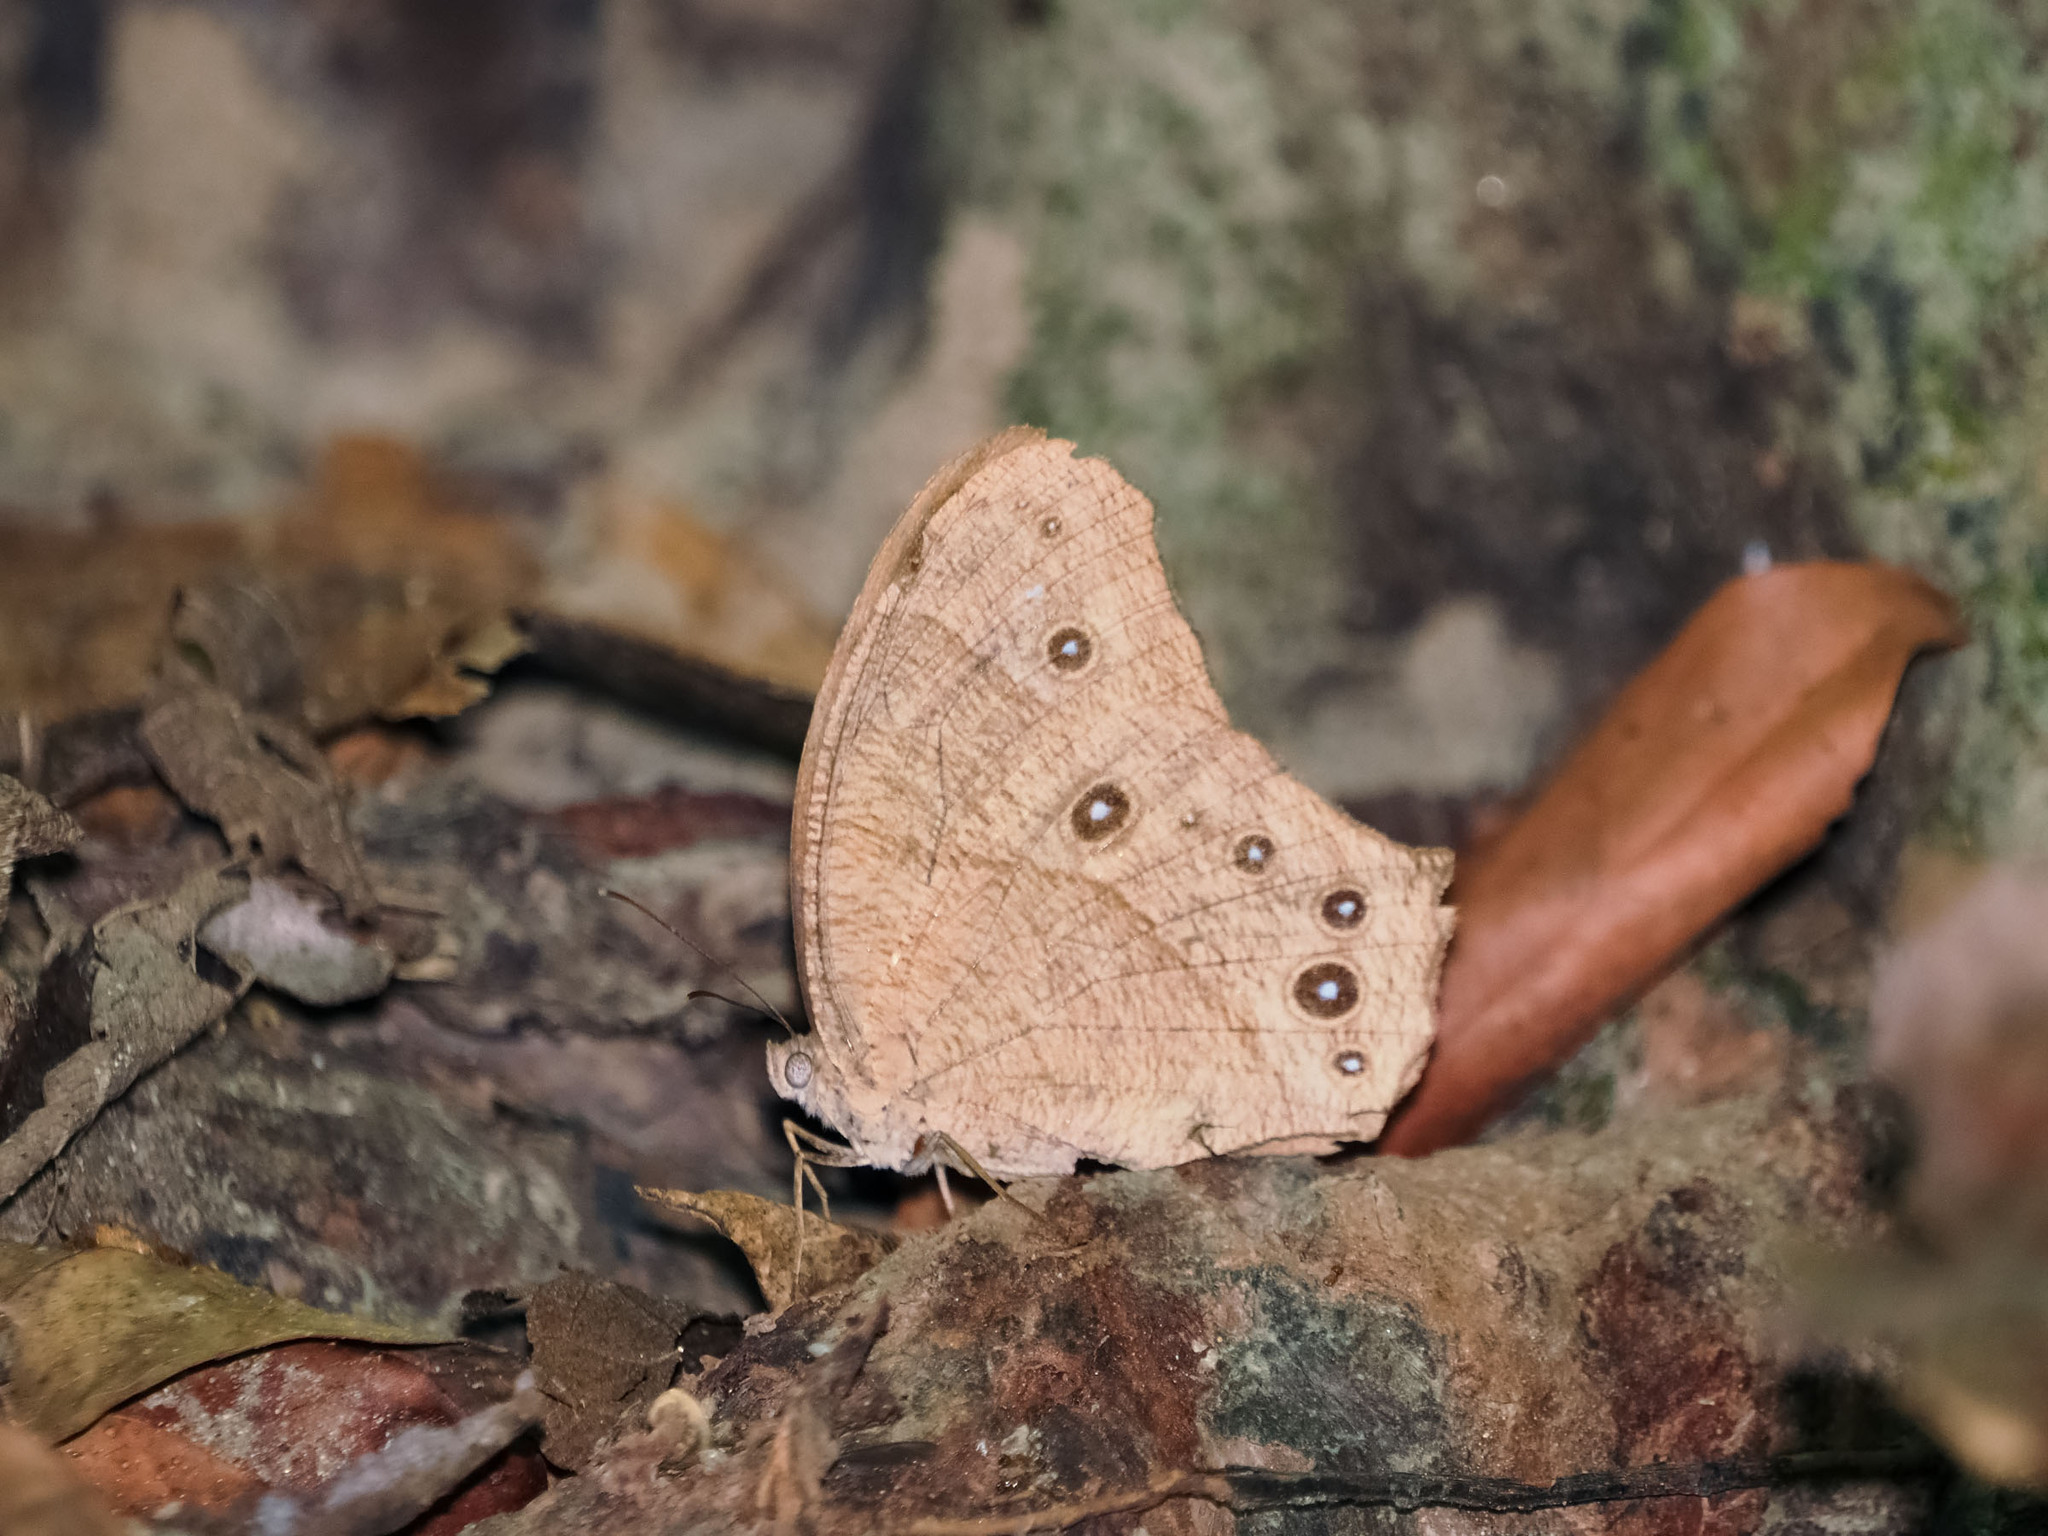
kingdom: Animalia
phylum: Arthropoda
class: Insecta
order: Lepidoptera
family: Nymphalidae
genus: Melanitis
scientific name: Melanitis leda
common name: Twilight brown
